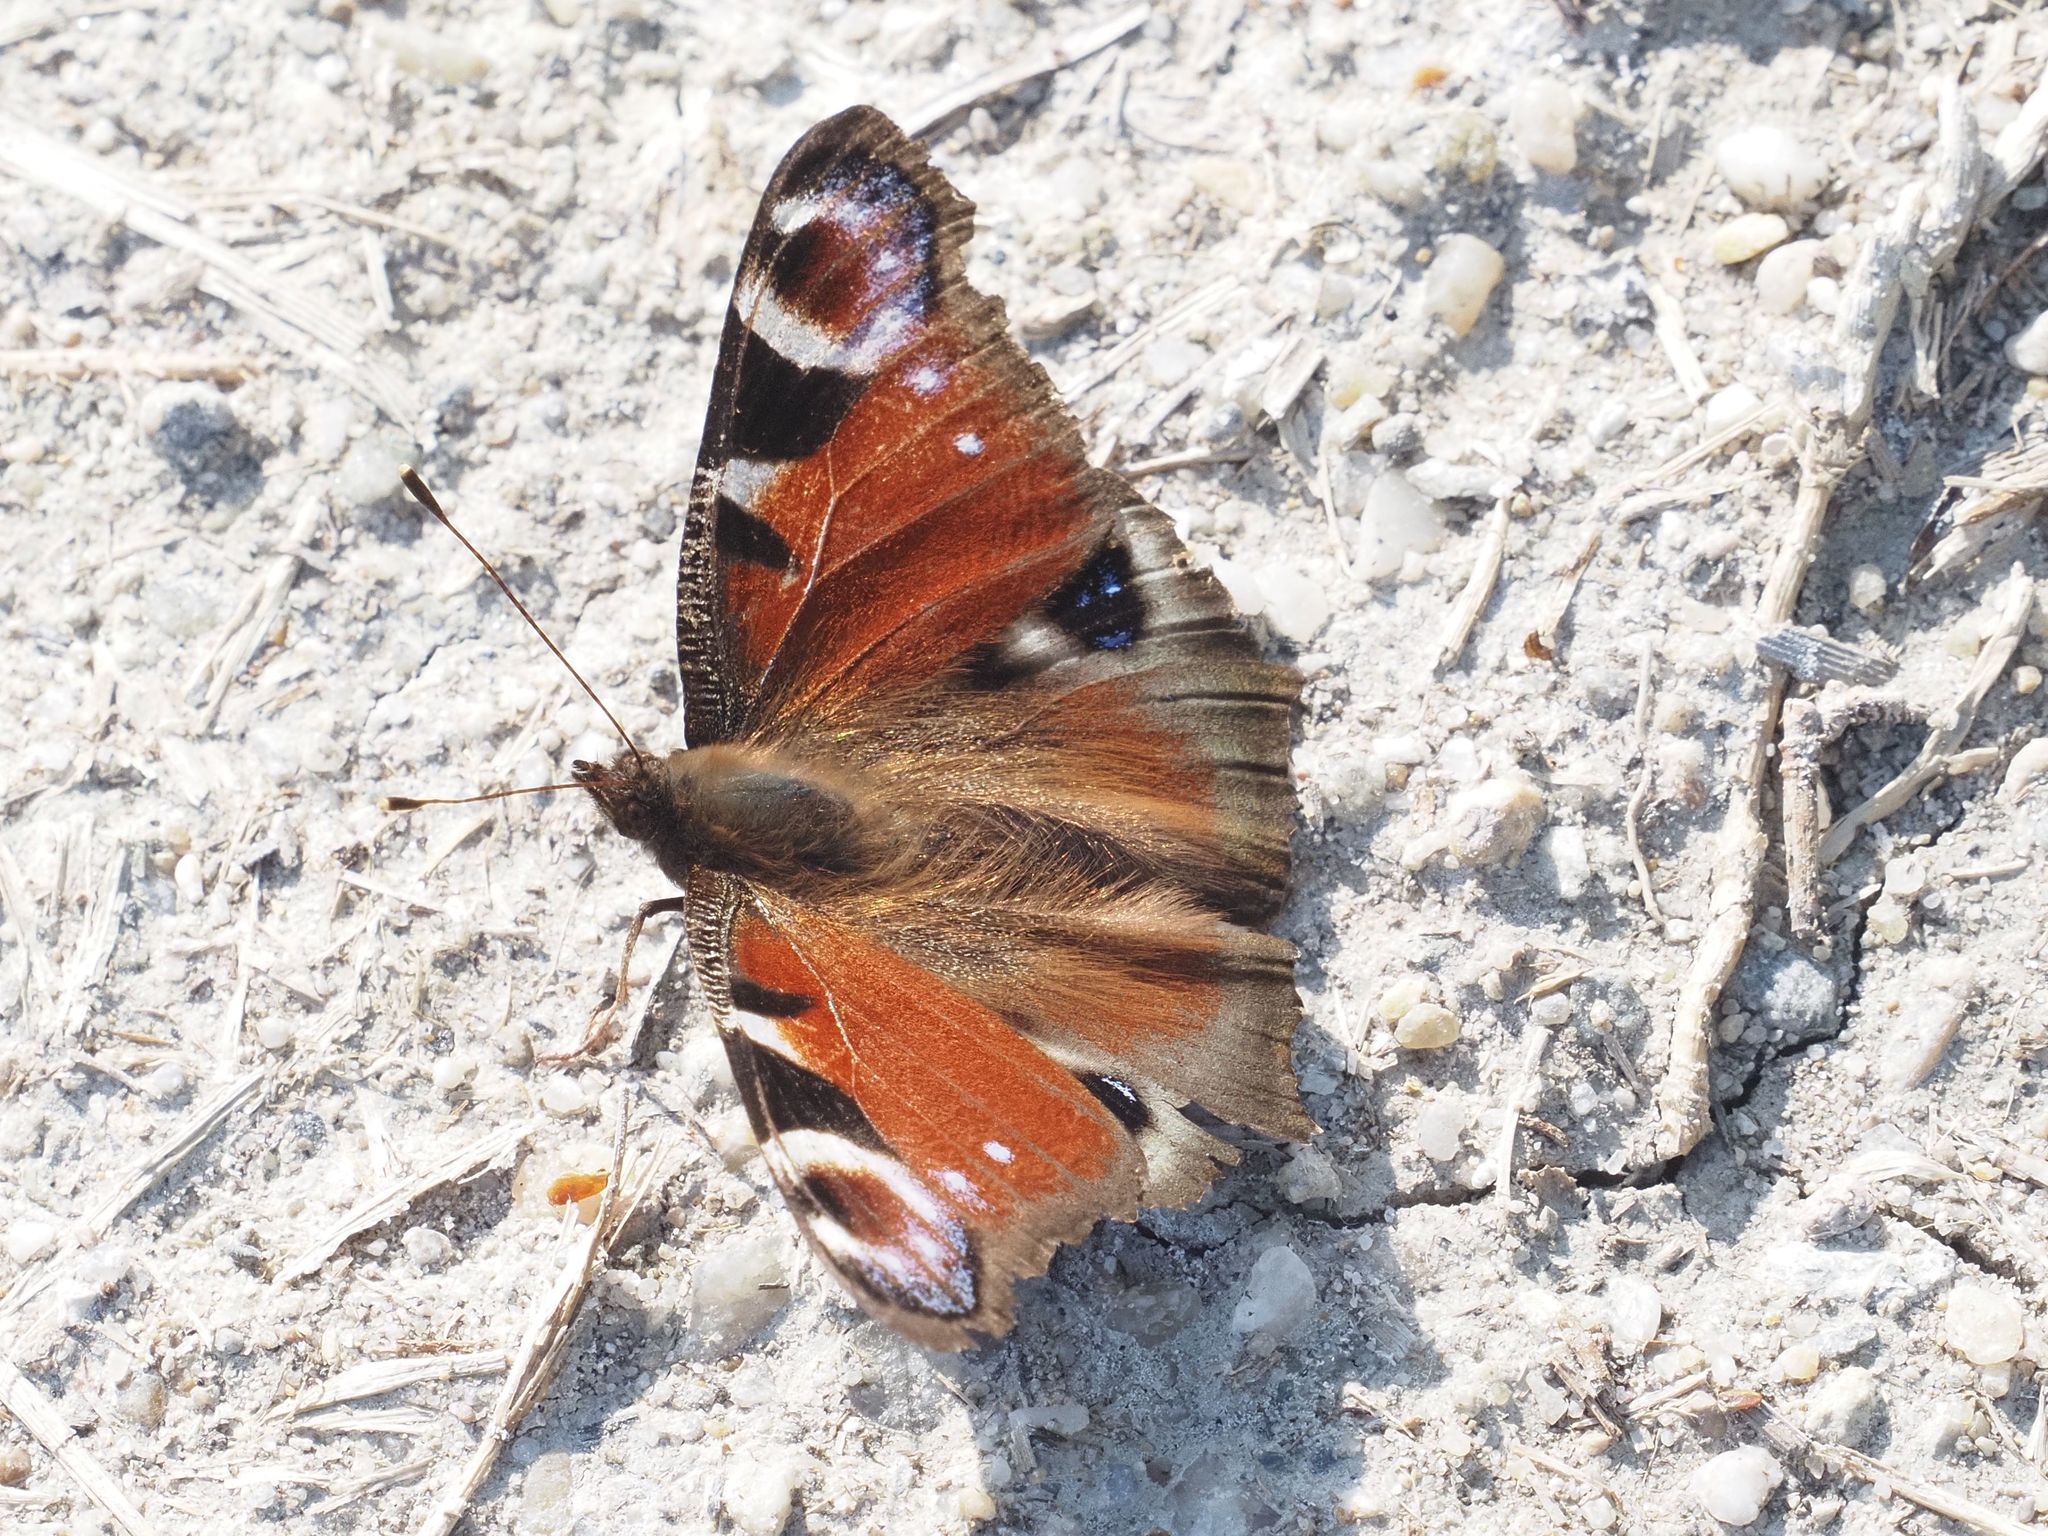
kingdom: Animalia
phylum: Arthropoda
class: Insecta
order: Lepidoptera
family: Nymphalidae
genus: Aglais
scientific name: Aglais io
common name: Peacock
